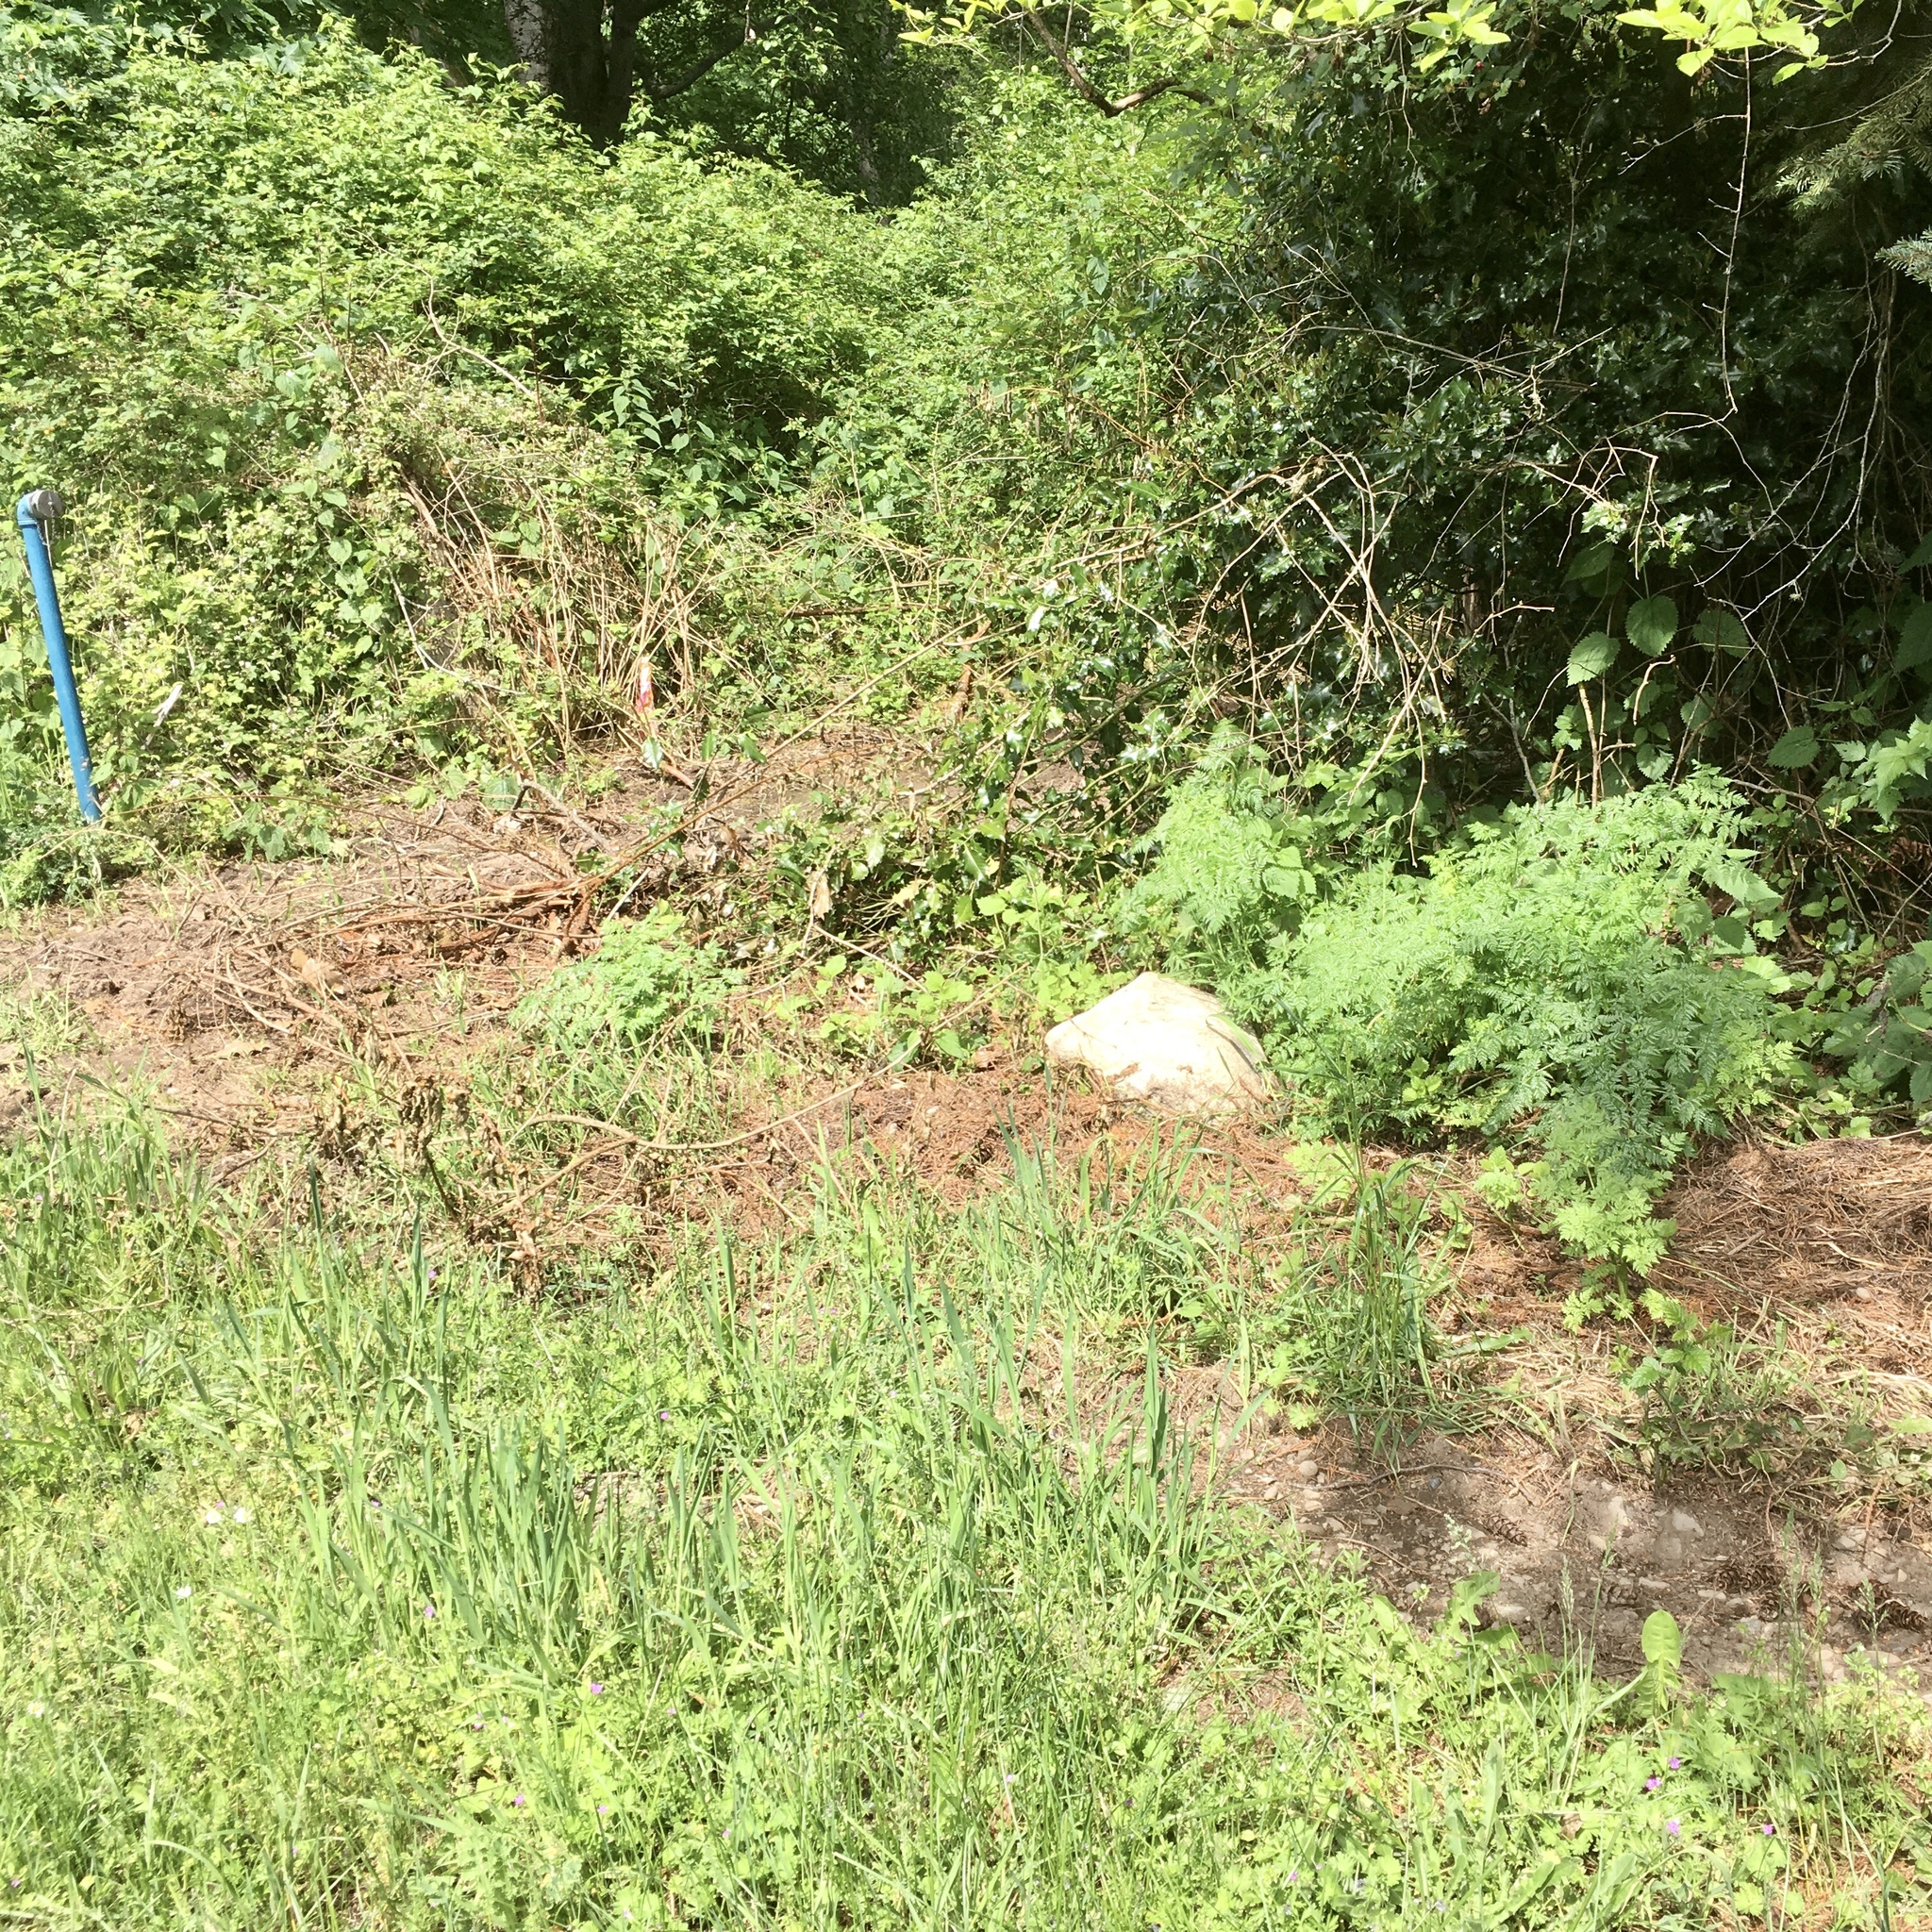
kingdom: Plantae
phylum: Tracheophyta
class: Magnoliopsida
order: Apiales
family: Apiaceae
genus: Conium
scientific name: Conium maculatum
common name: Hemlock
